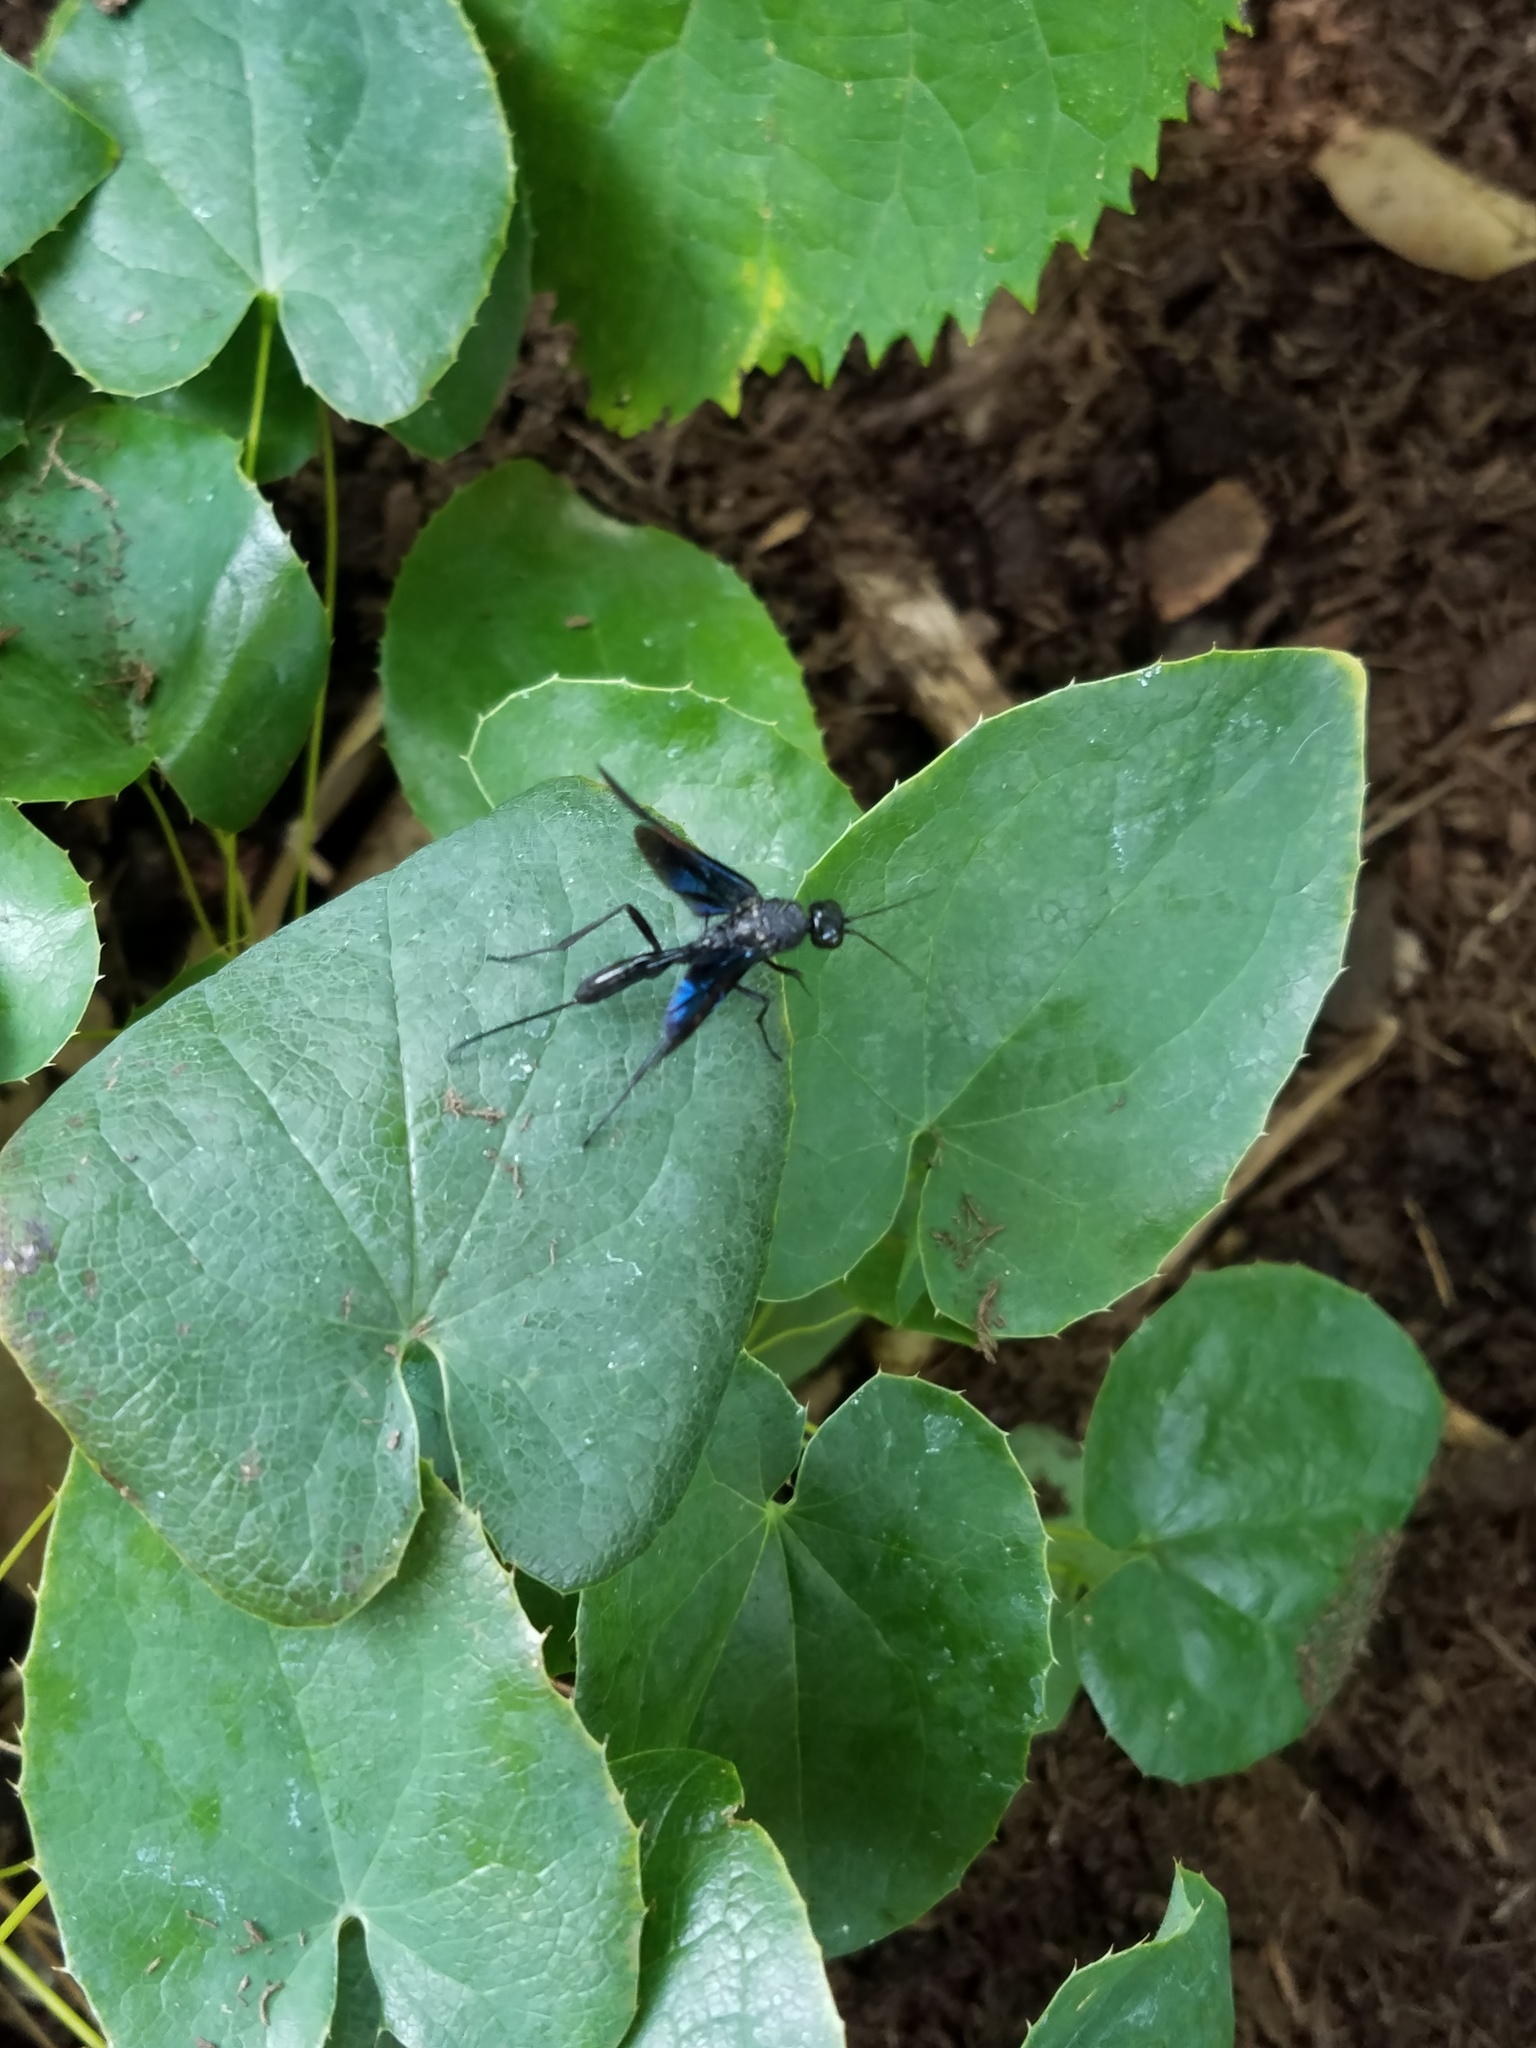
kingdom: Animalia
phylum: Arthropoda
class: Insecta
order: Hymenoptera
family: Aulacidae
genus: Pristaulacus
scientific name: Pristaulacus fasciatus
